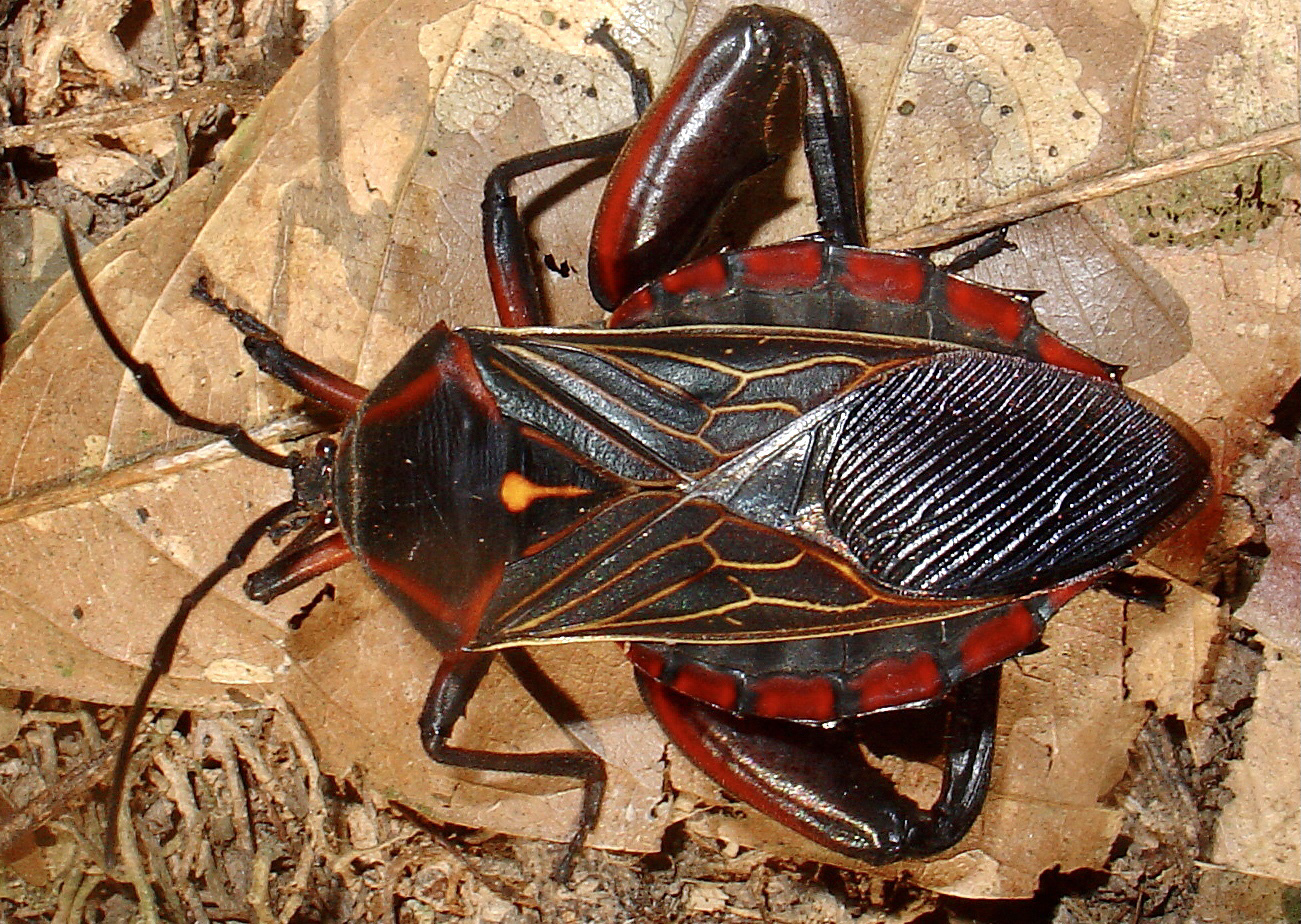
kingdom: Animalia
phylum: Arthropoda
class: Insecta
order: Hemiptera
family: Coreidae
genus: Pachylis
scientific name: Pachylis pharaonis
